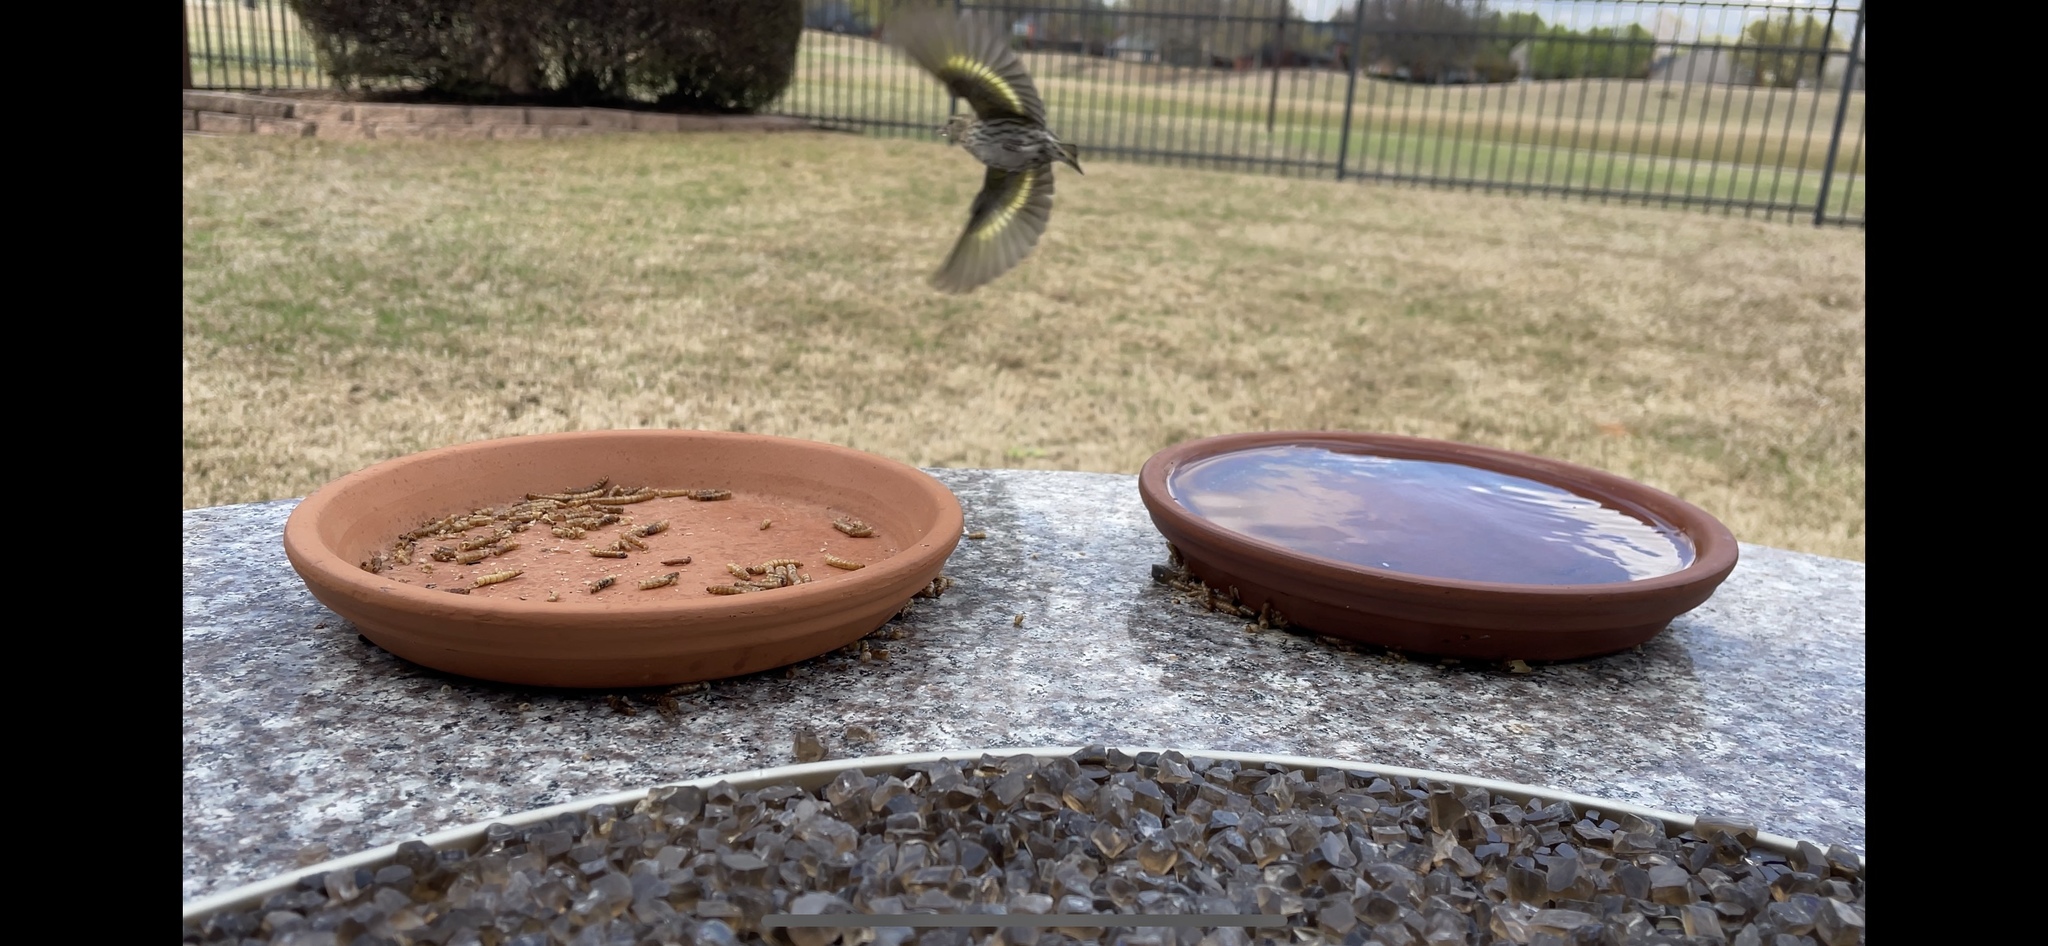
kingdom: Animalia
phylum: Chordata
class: Aves
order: Passeriformes
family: Fringillidae
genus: Spinus
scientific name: Spinus pinus
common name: Pine siskin
